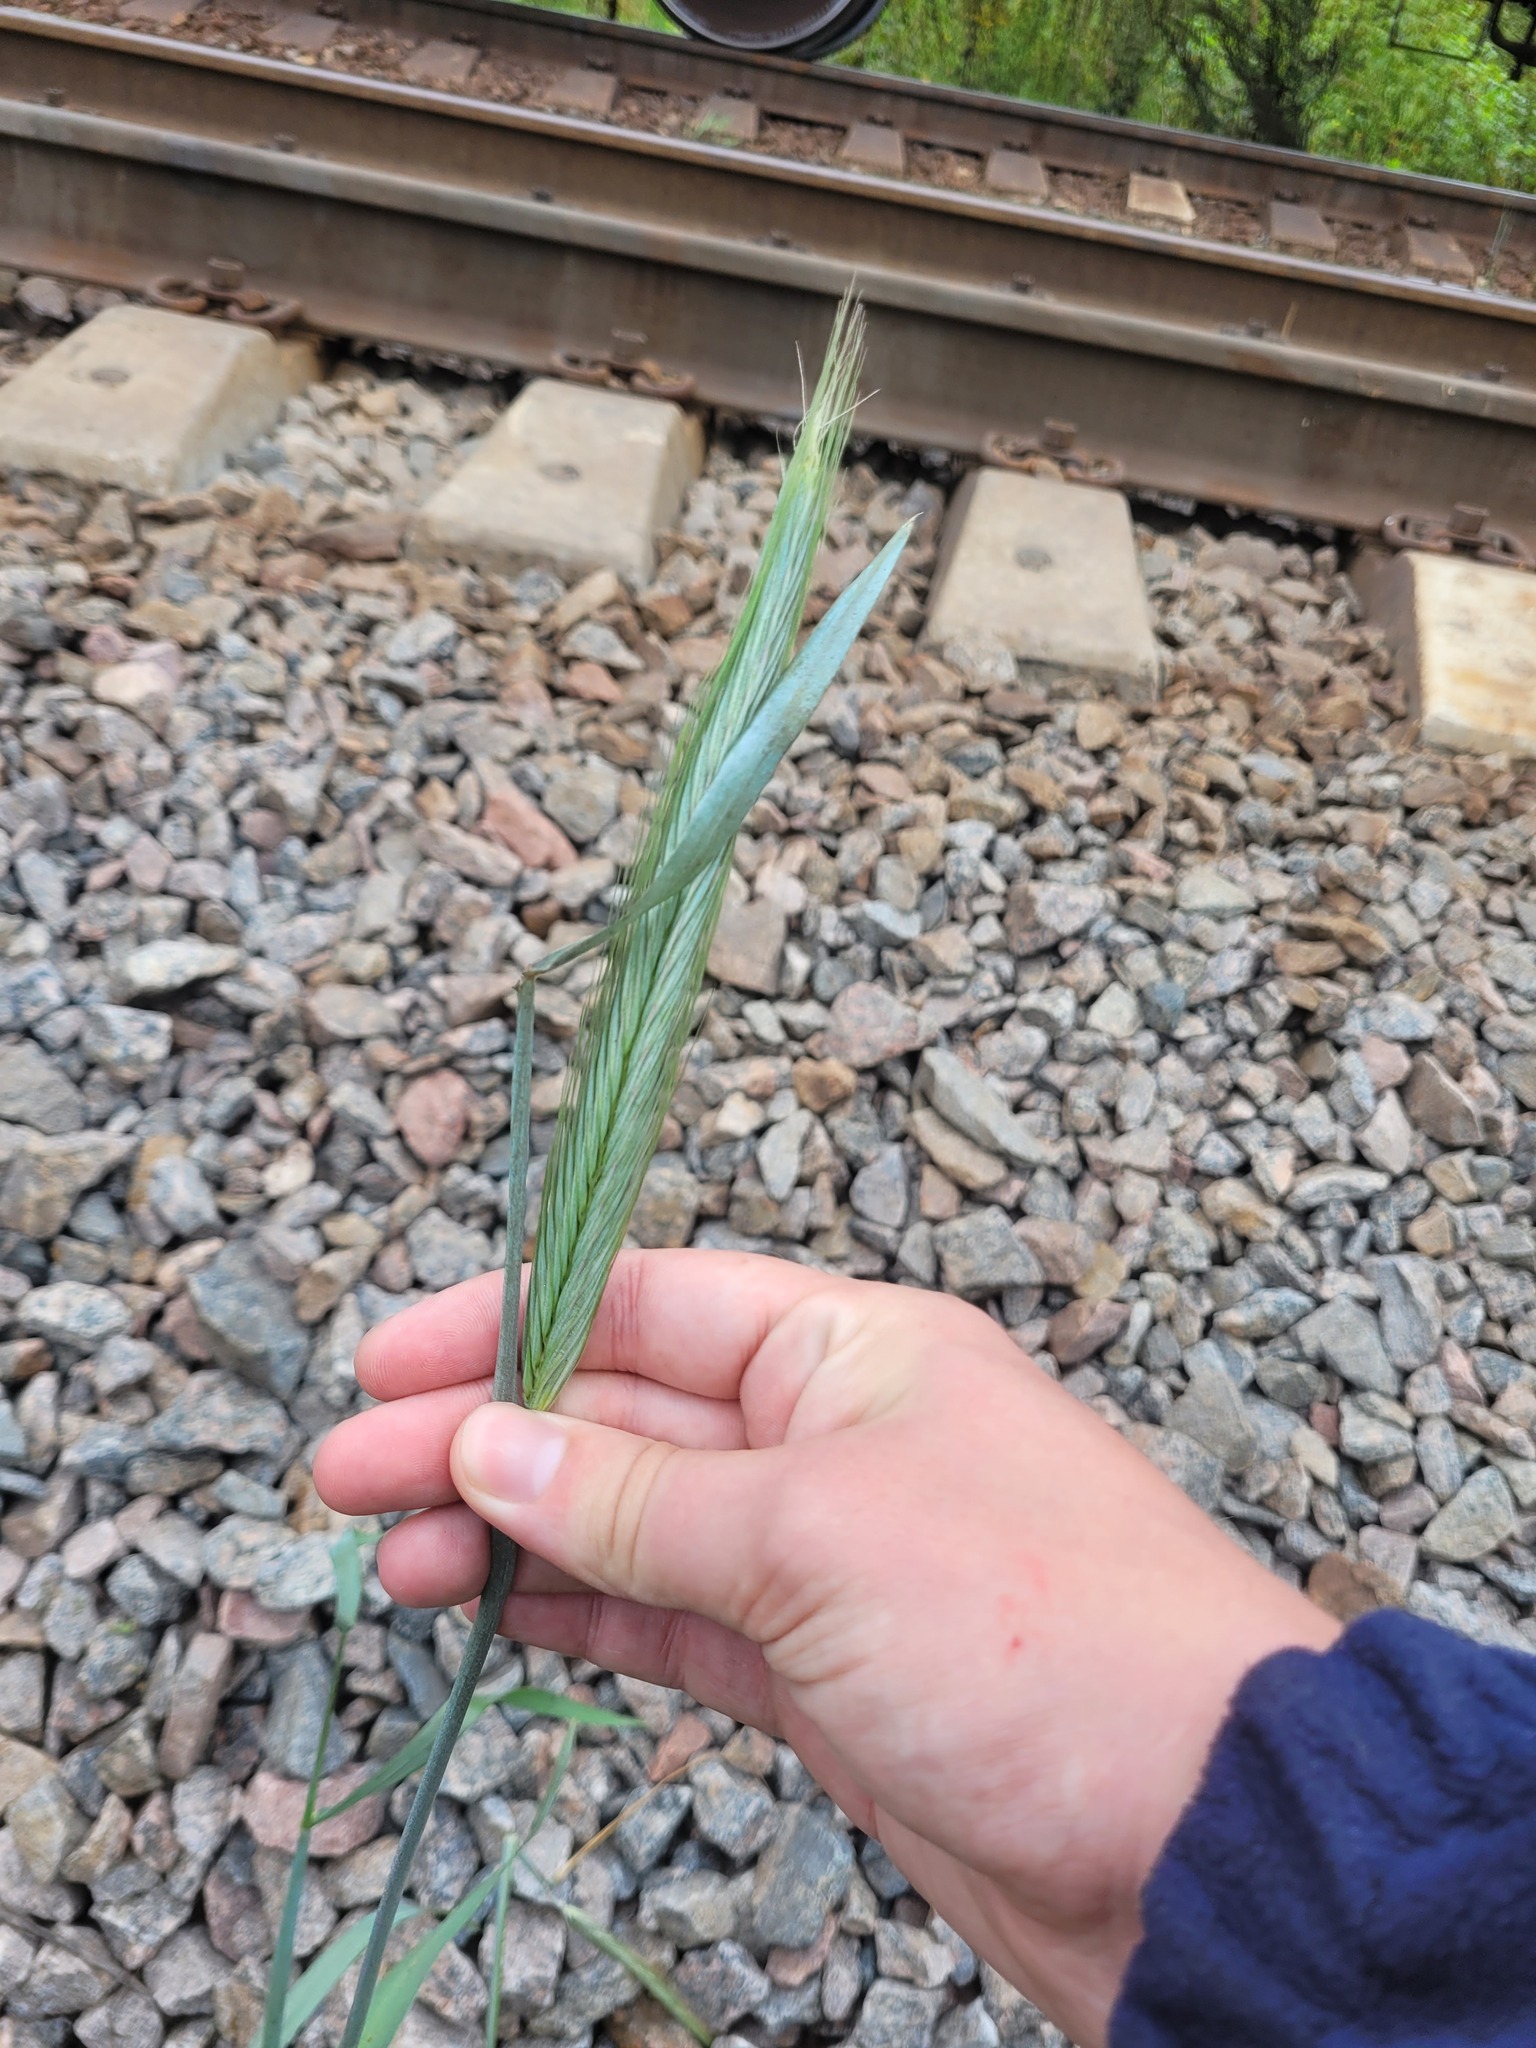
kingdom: Plantae
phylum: Tracheophyta
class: Liliopsida
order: Poales
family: Poaceae
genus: Secale
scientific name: Secale cereale
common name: Rye
